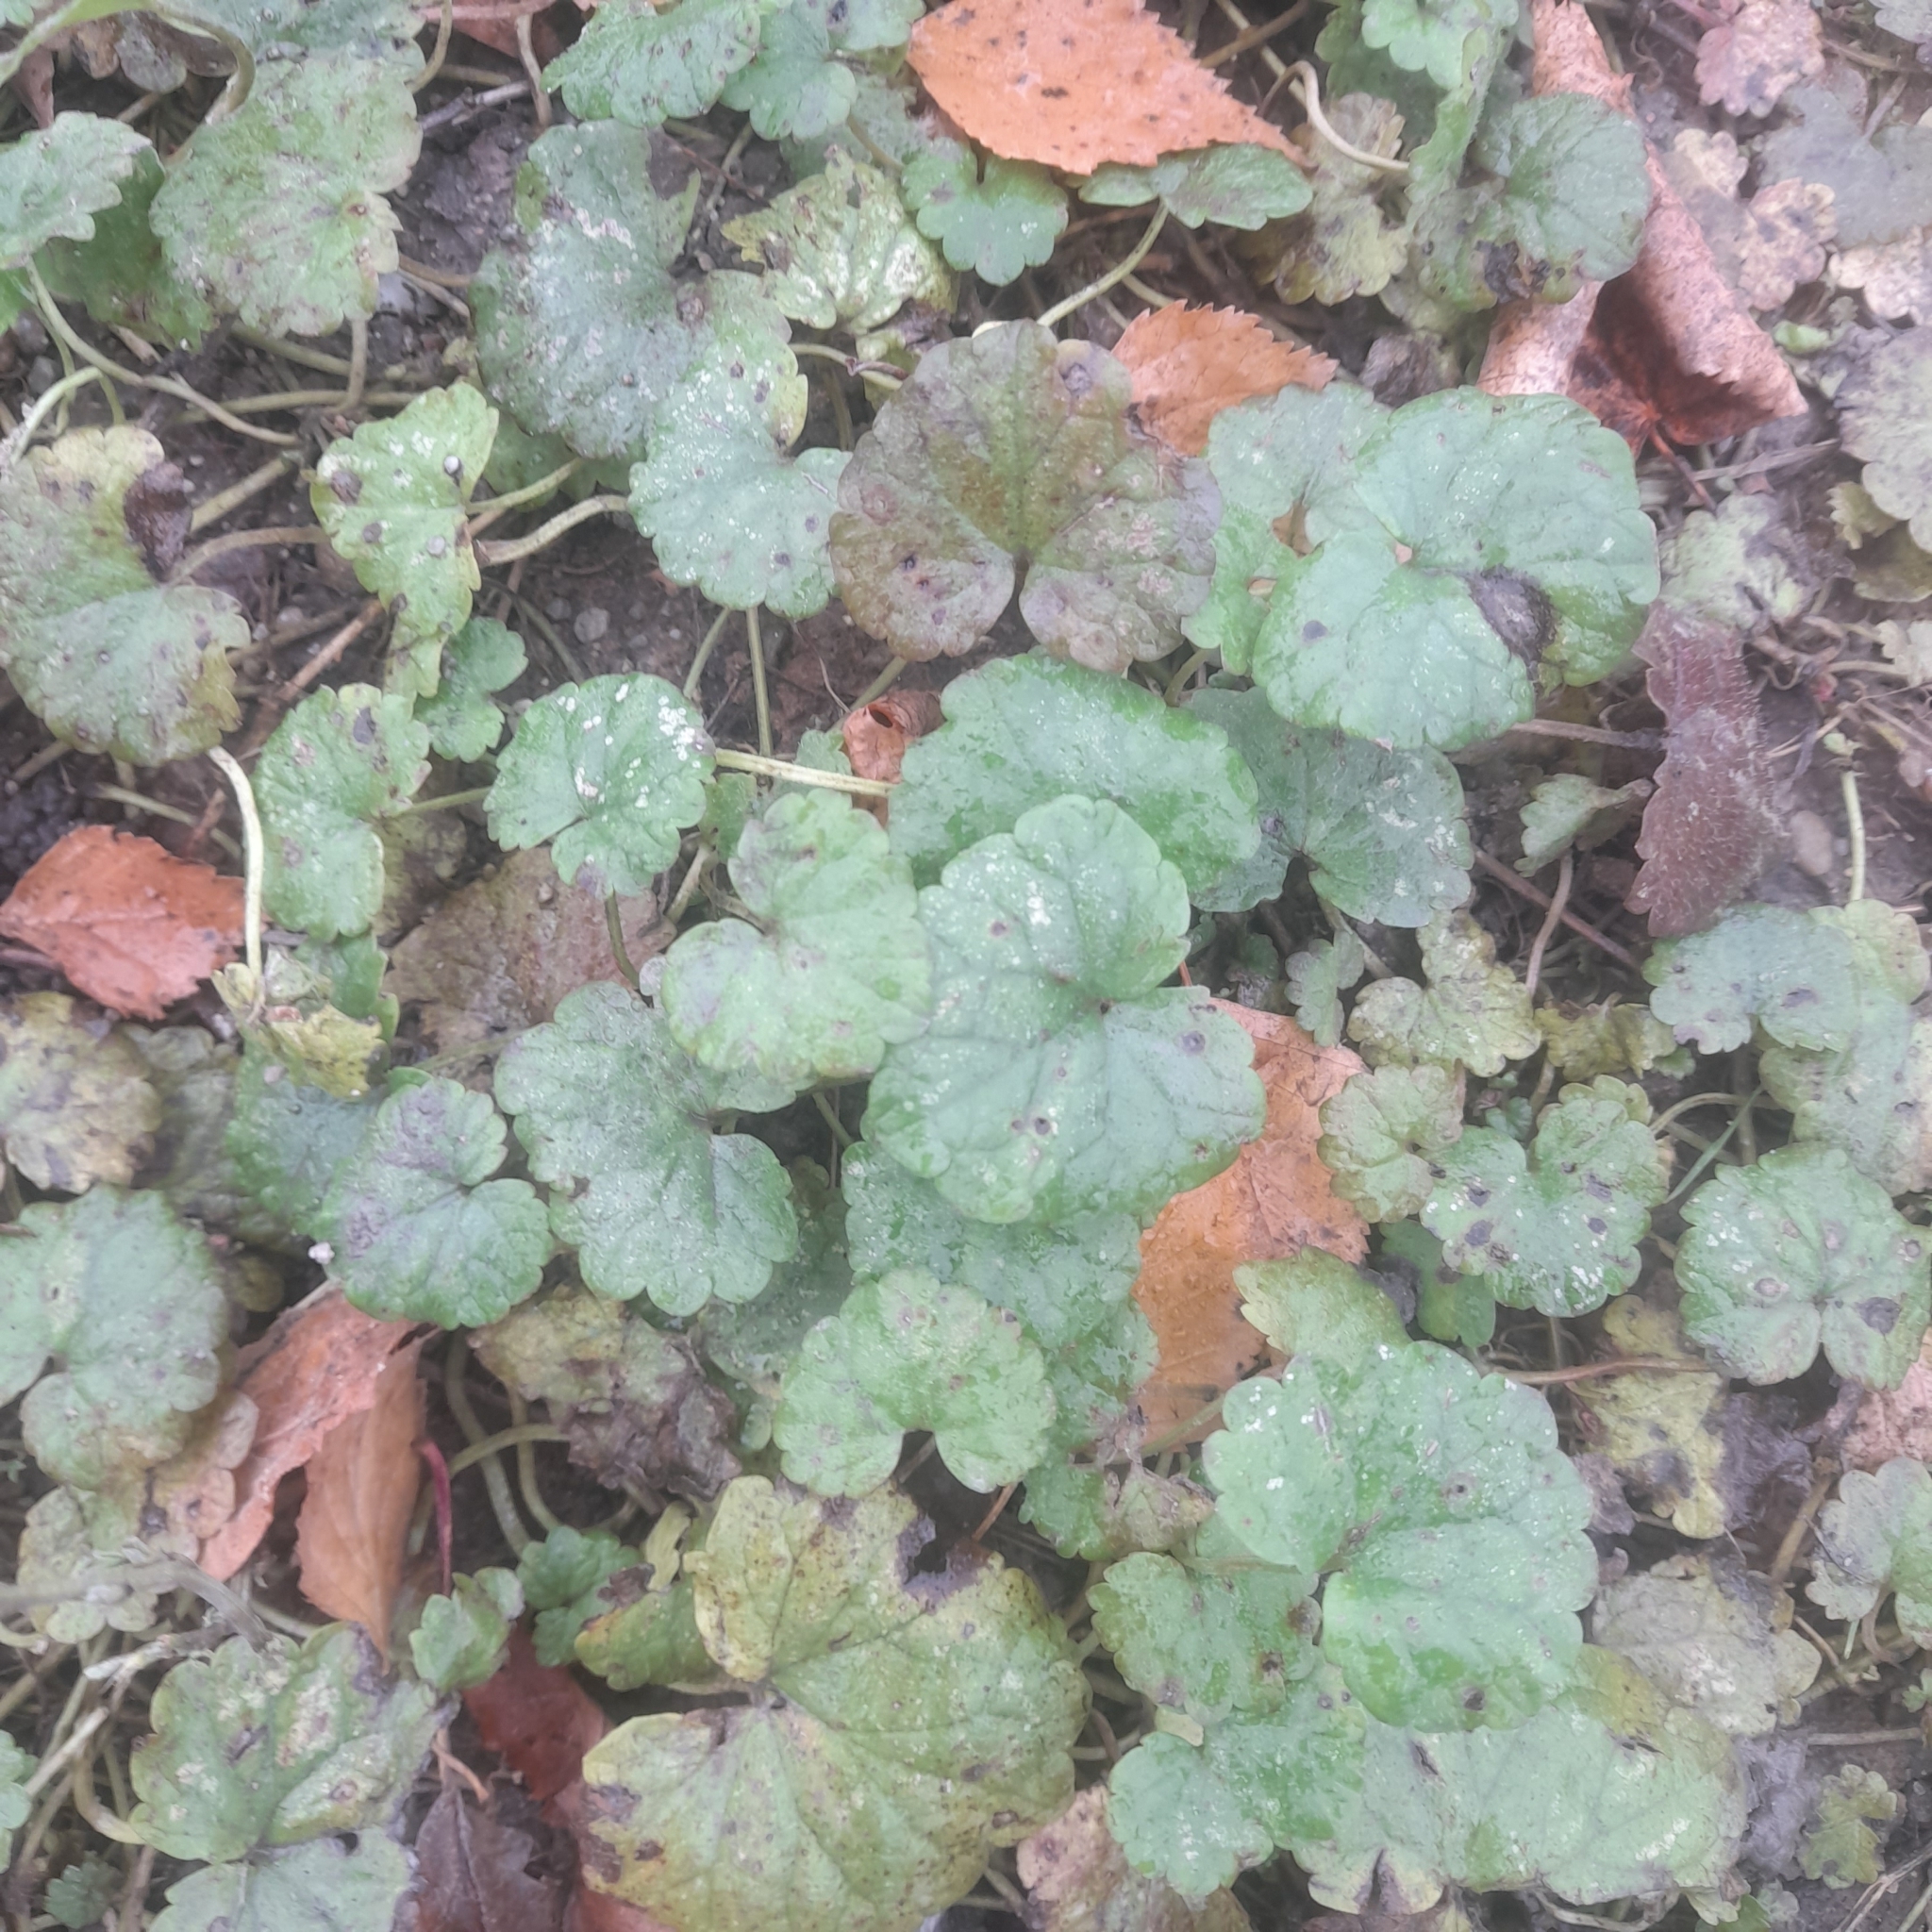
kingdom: Plantae
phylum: Tracheophyta
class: Magnoliopsida
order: Lamiales
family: Lamiaceae
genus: Glechoma
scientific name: Glechoma hederacea
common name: Ground ivy
